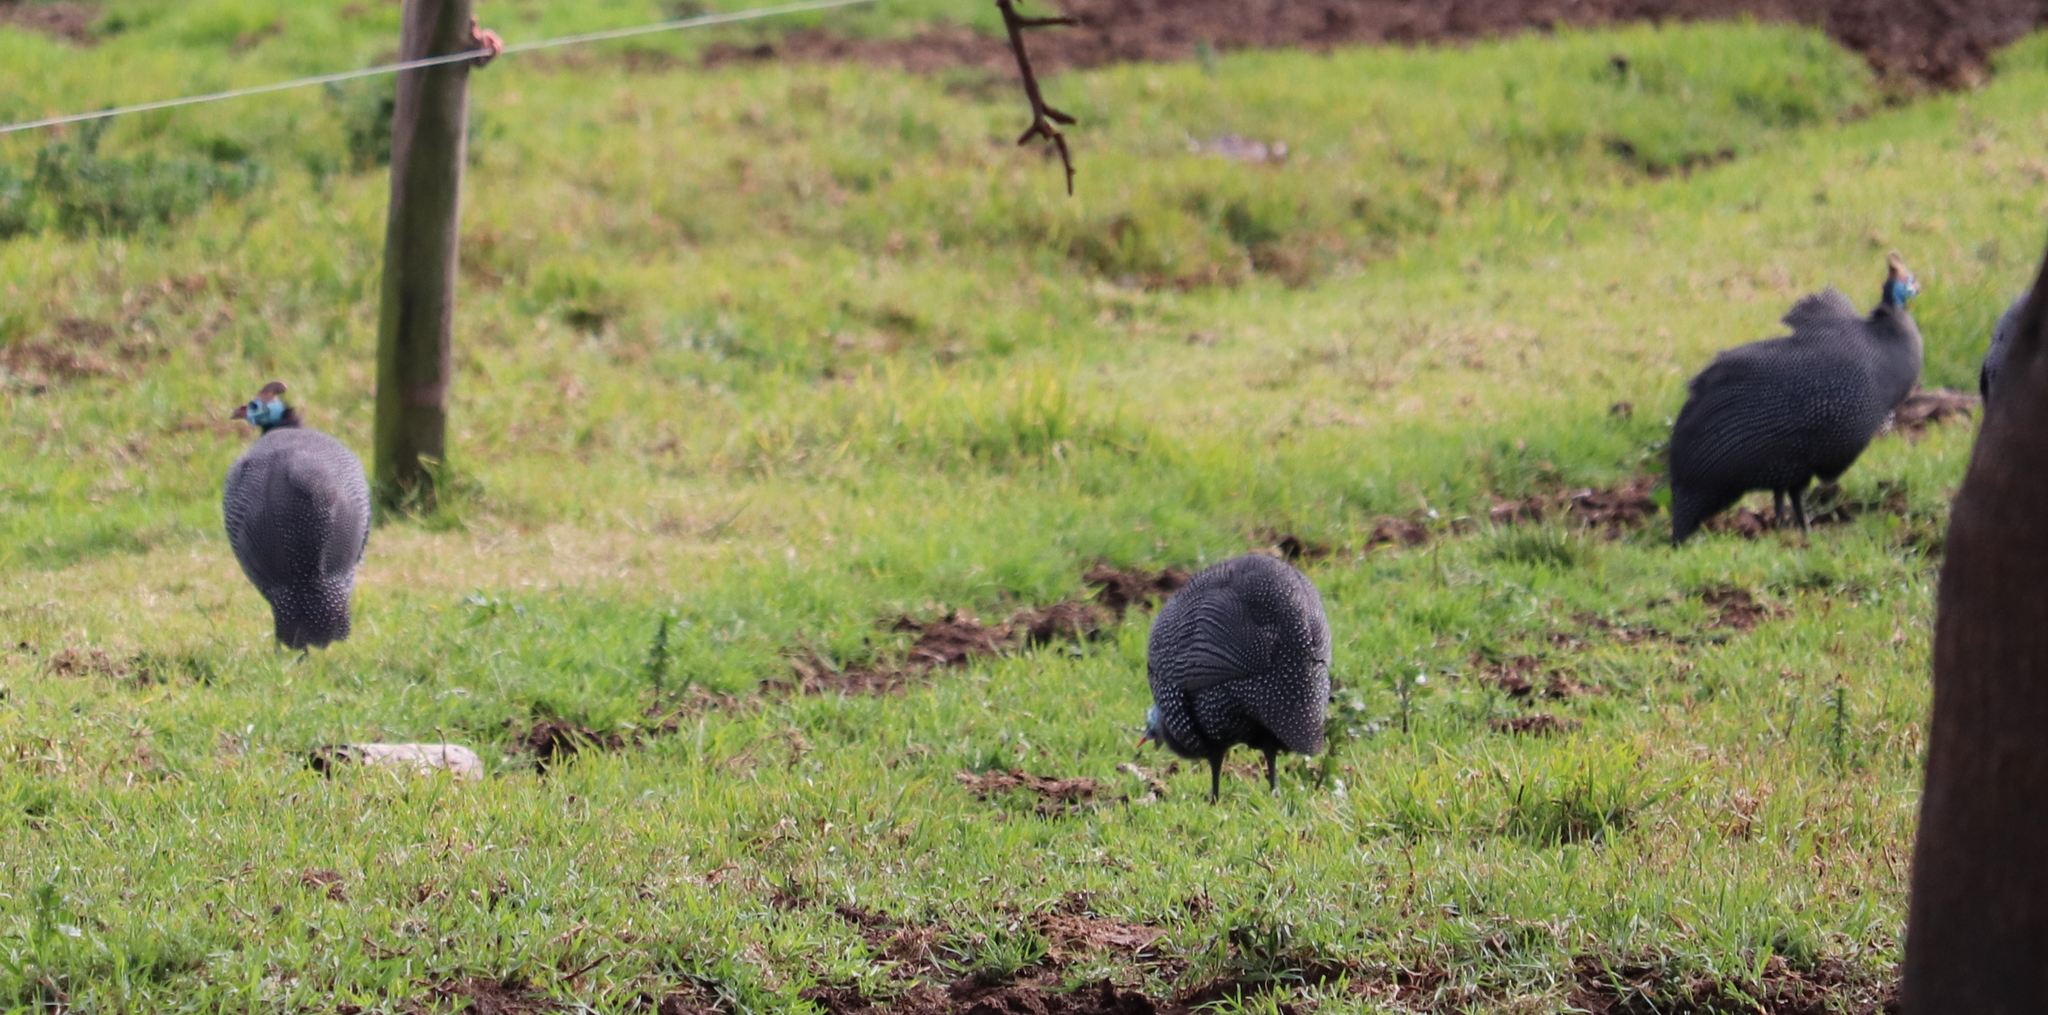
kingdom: Animalia
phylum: Chordata
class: Aves
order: Galliformes
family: Numididae
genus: Numida
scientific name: Numida meleagris
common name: Helmeted guineafowl
